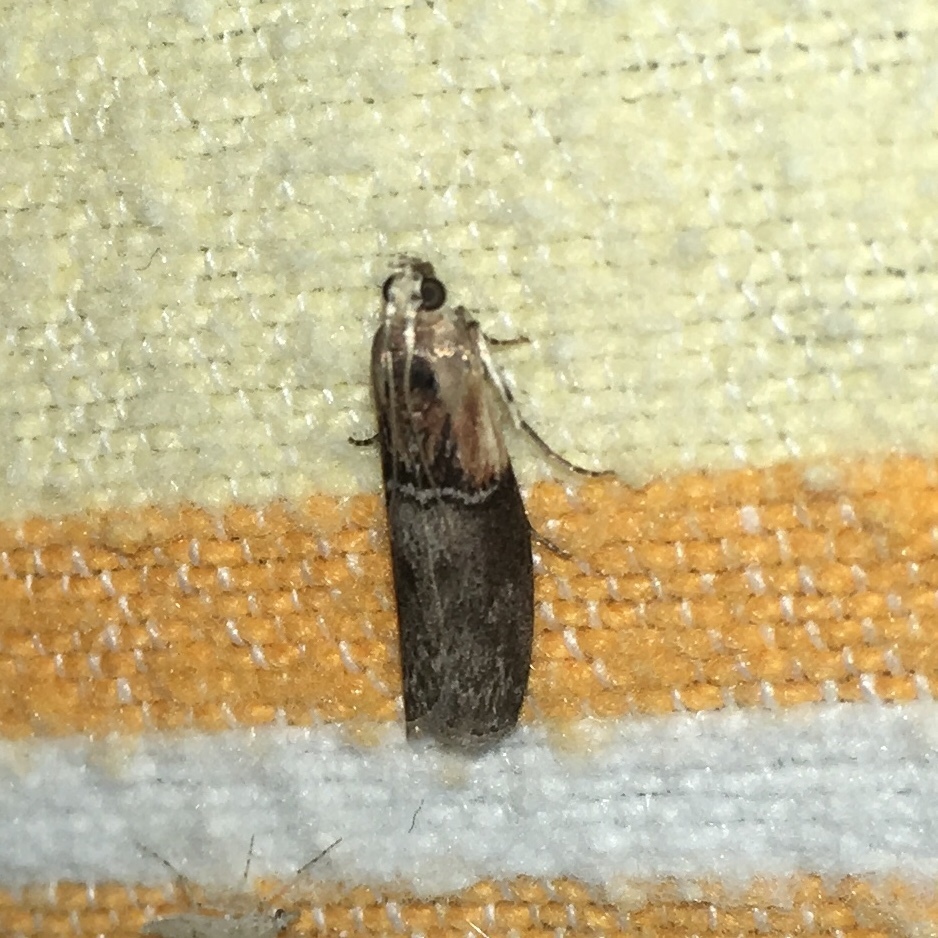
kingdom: Animalia
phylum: Arthropoda
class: Insecta
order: Lepidoptera
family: Pyralidae
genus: Sciota
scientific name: Sciota basilaris
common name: Yellow-shouldered leafroller
